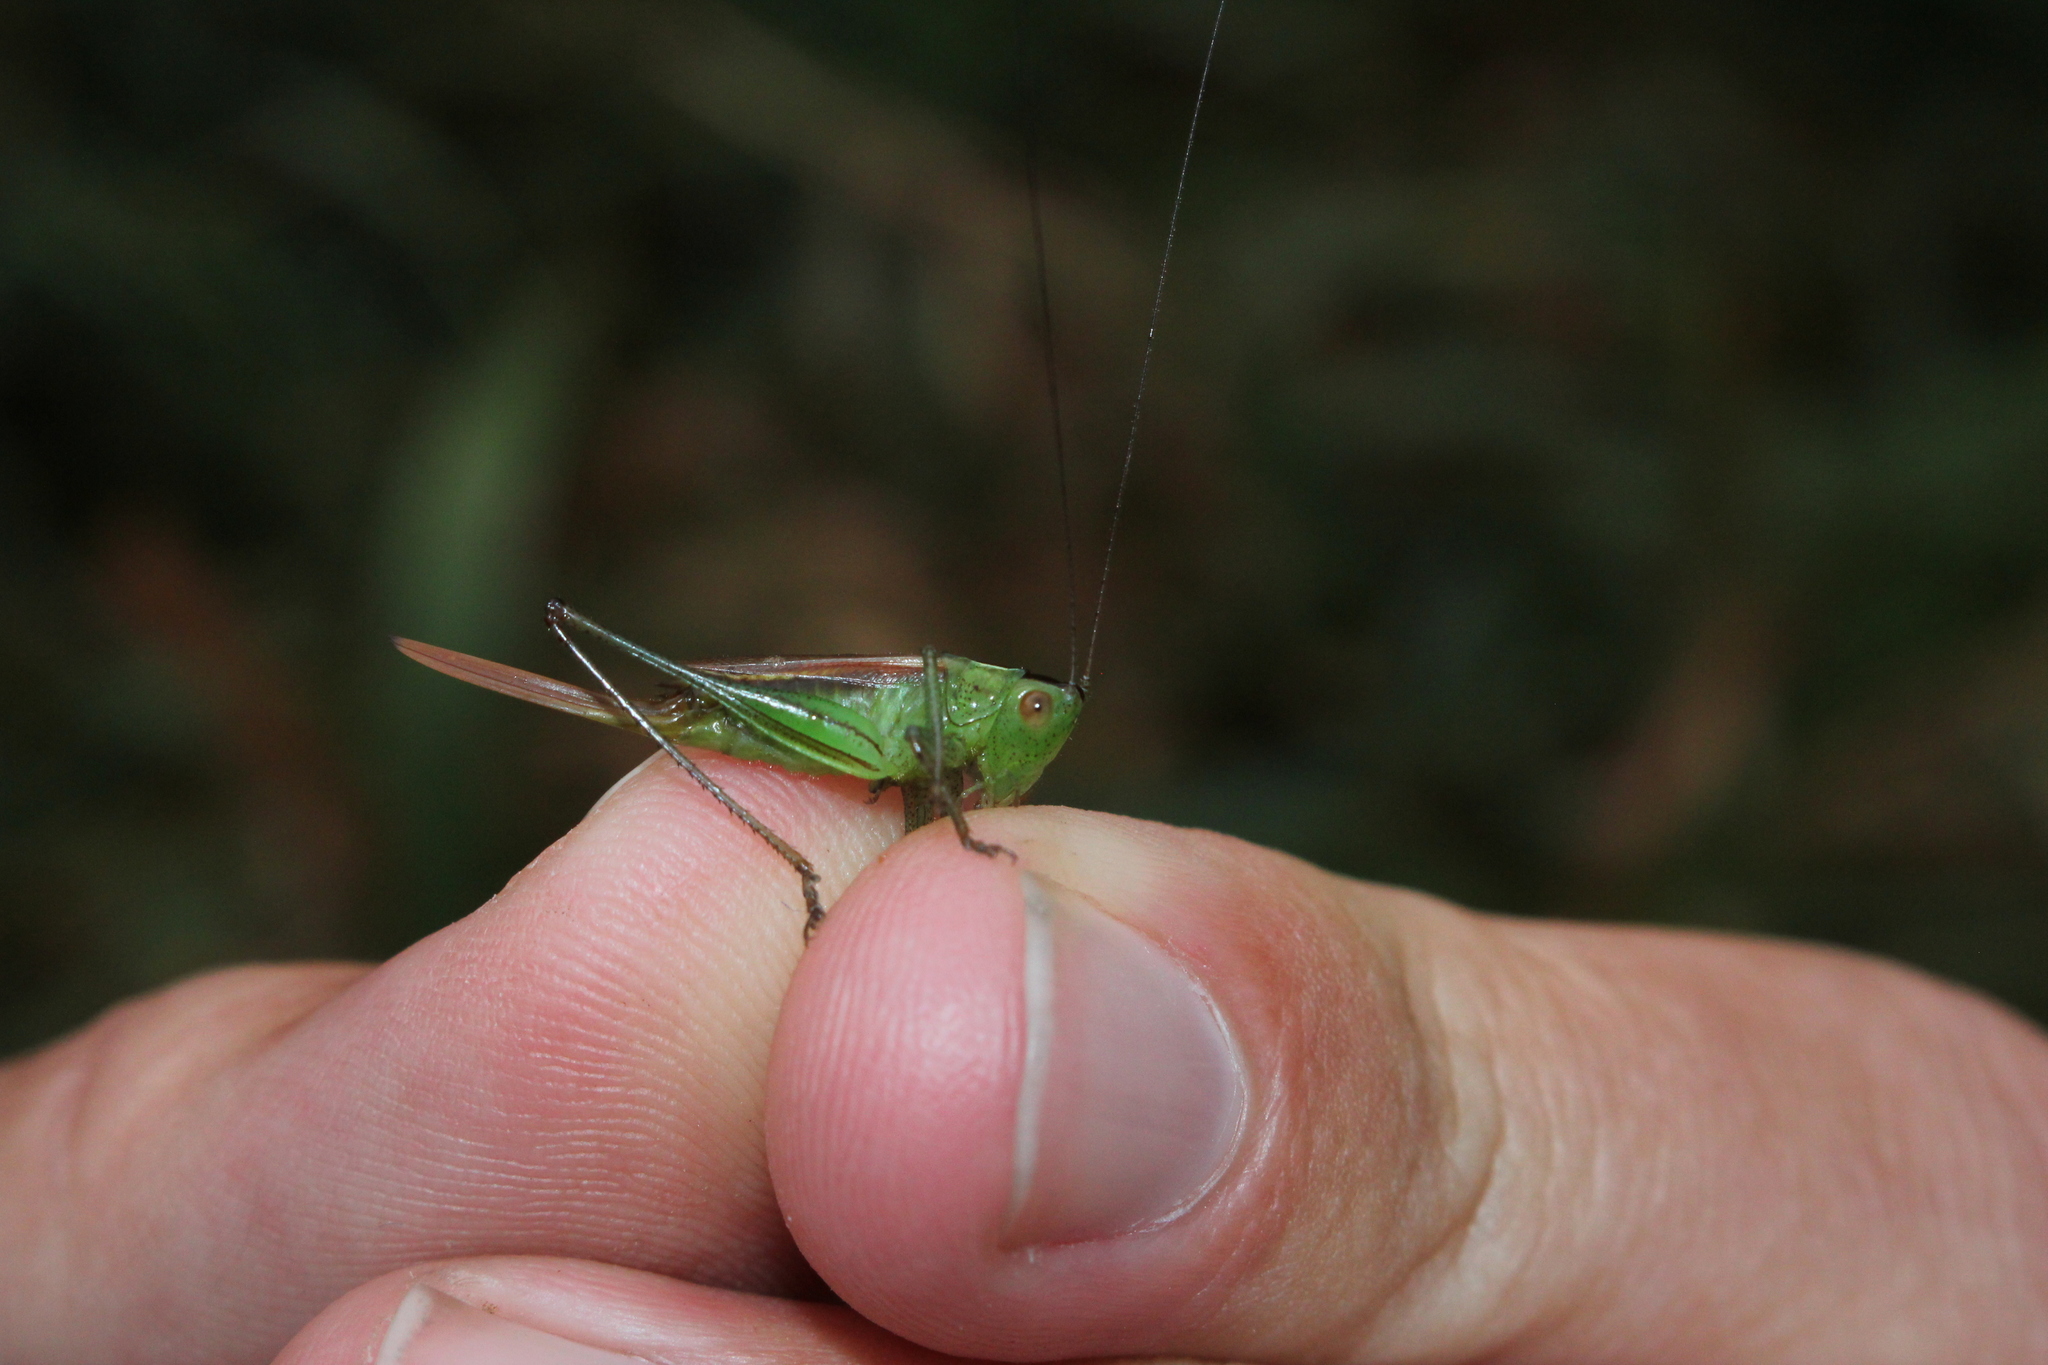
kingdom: Animalia
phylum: Arthropoda
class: Insecta
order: Orthoptera
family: Tettigoniidae
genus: Conocephalus
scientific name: Conocephalus brevipennis
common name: Short-winged meadow katydid
